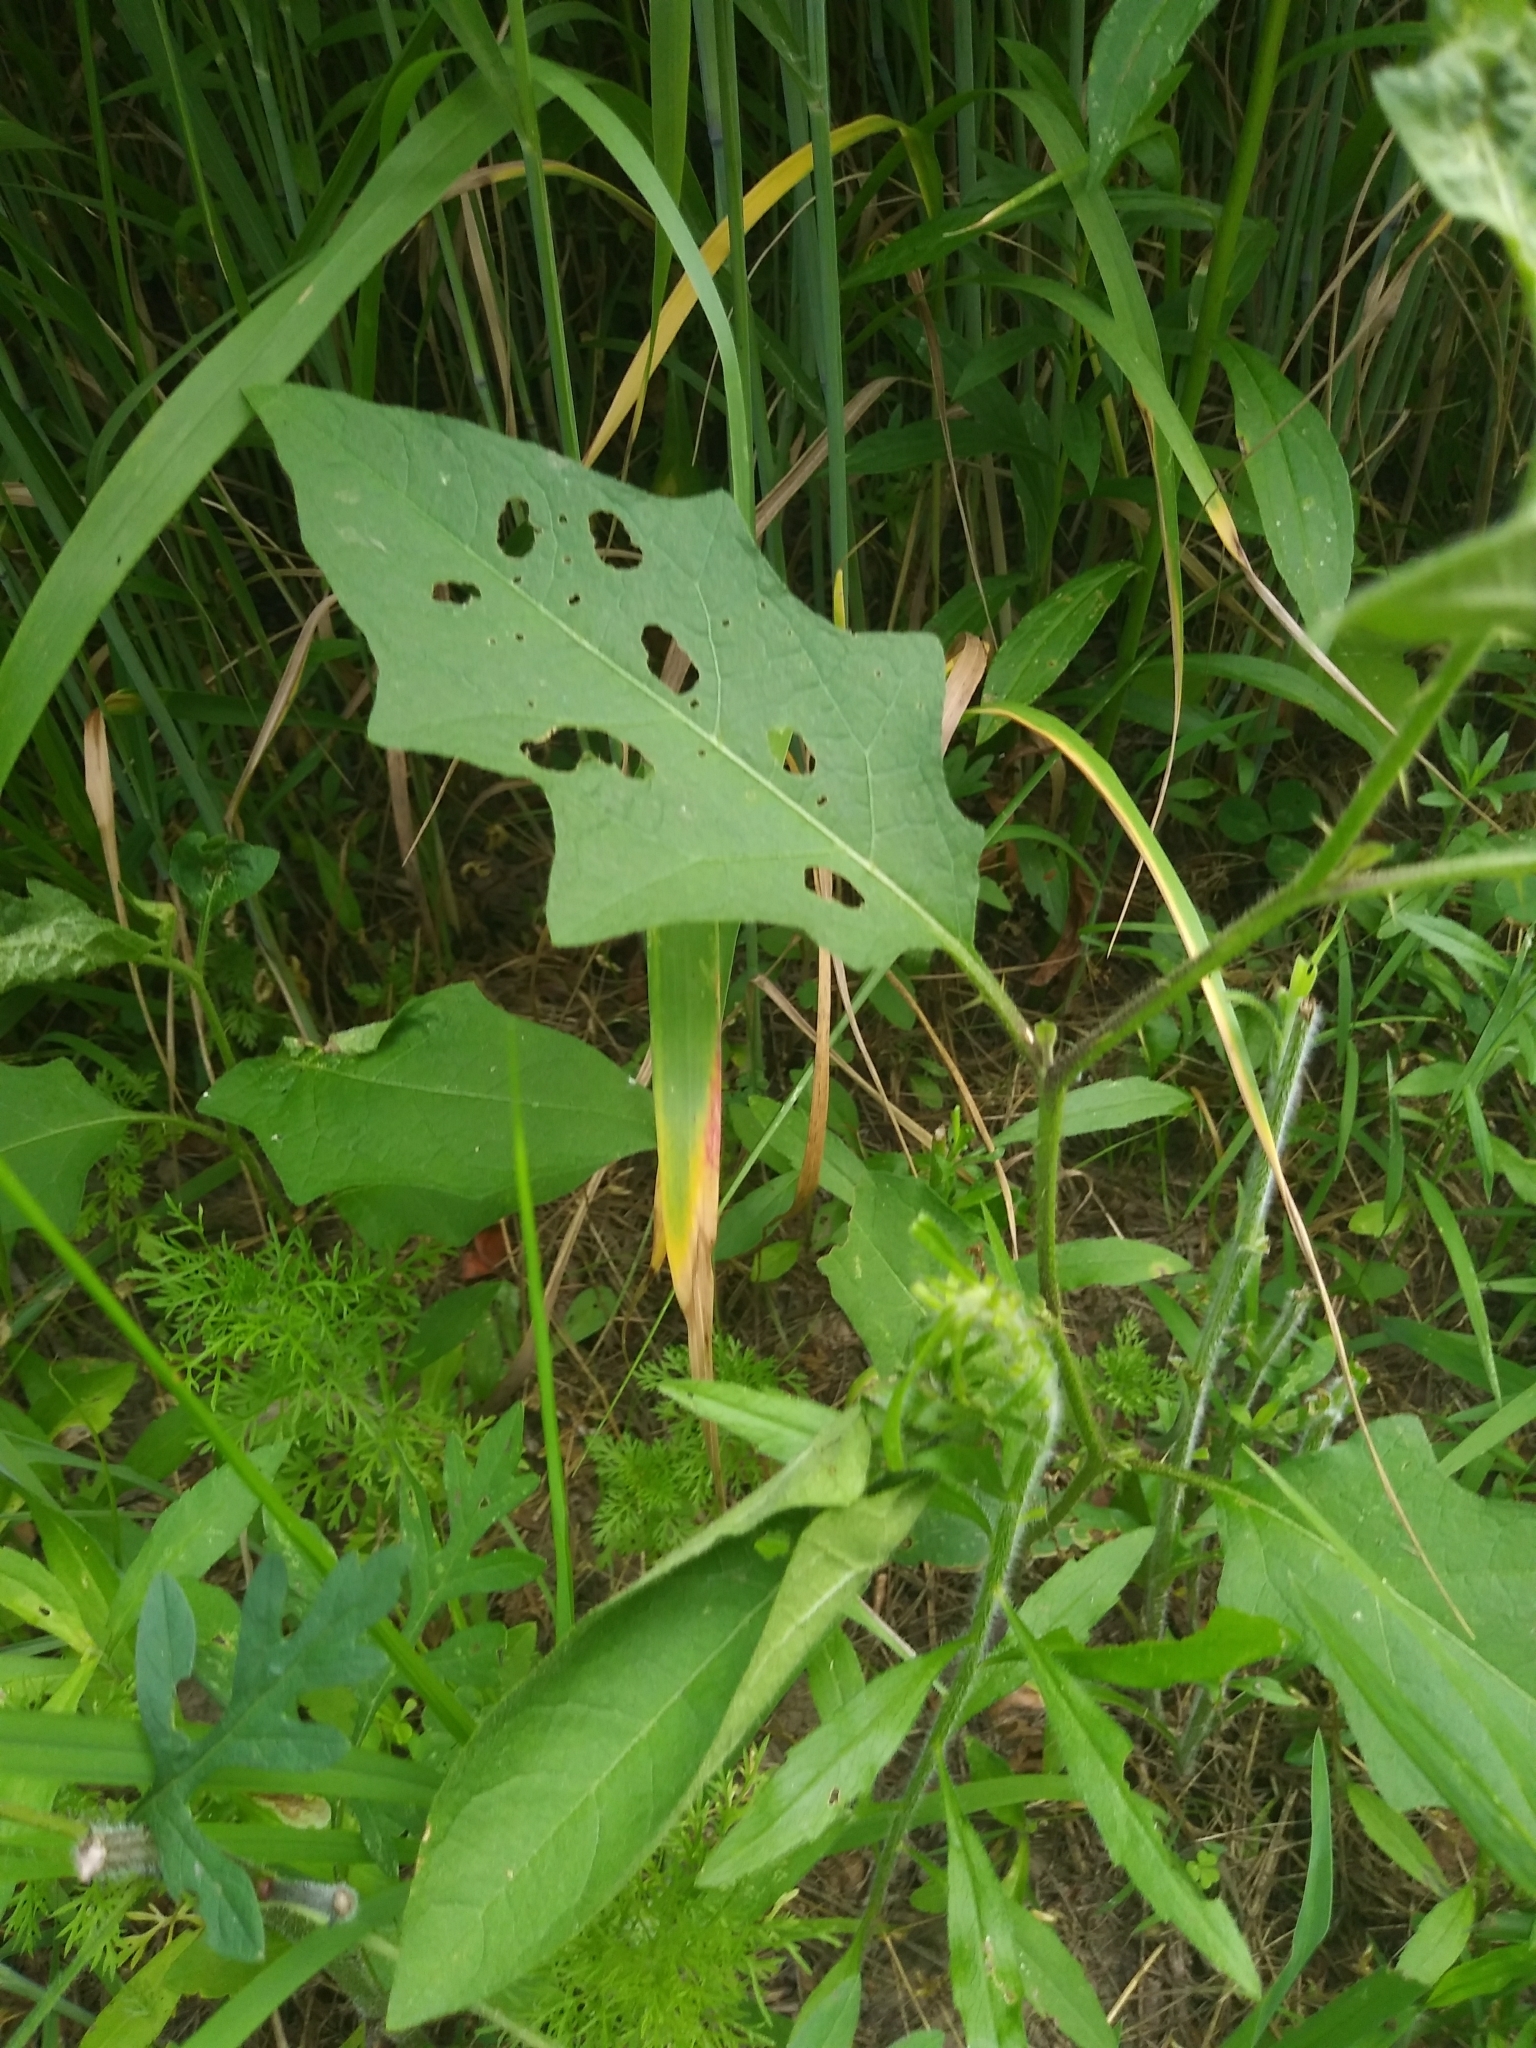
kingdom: Plantae
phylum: Tracheophyta
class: Magnoliopsida
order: Solanales
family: Solanaceae
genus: Solanum
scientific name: Solanum carolinense
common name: Horse-nettle
